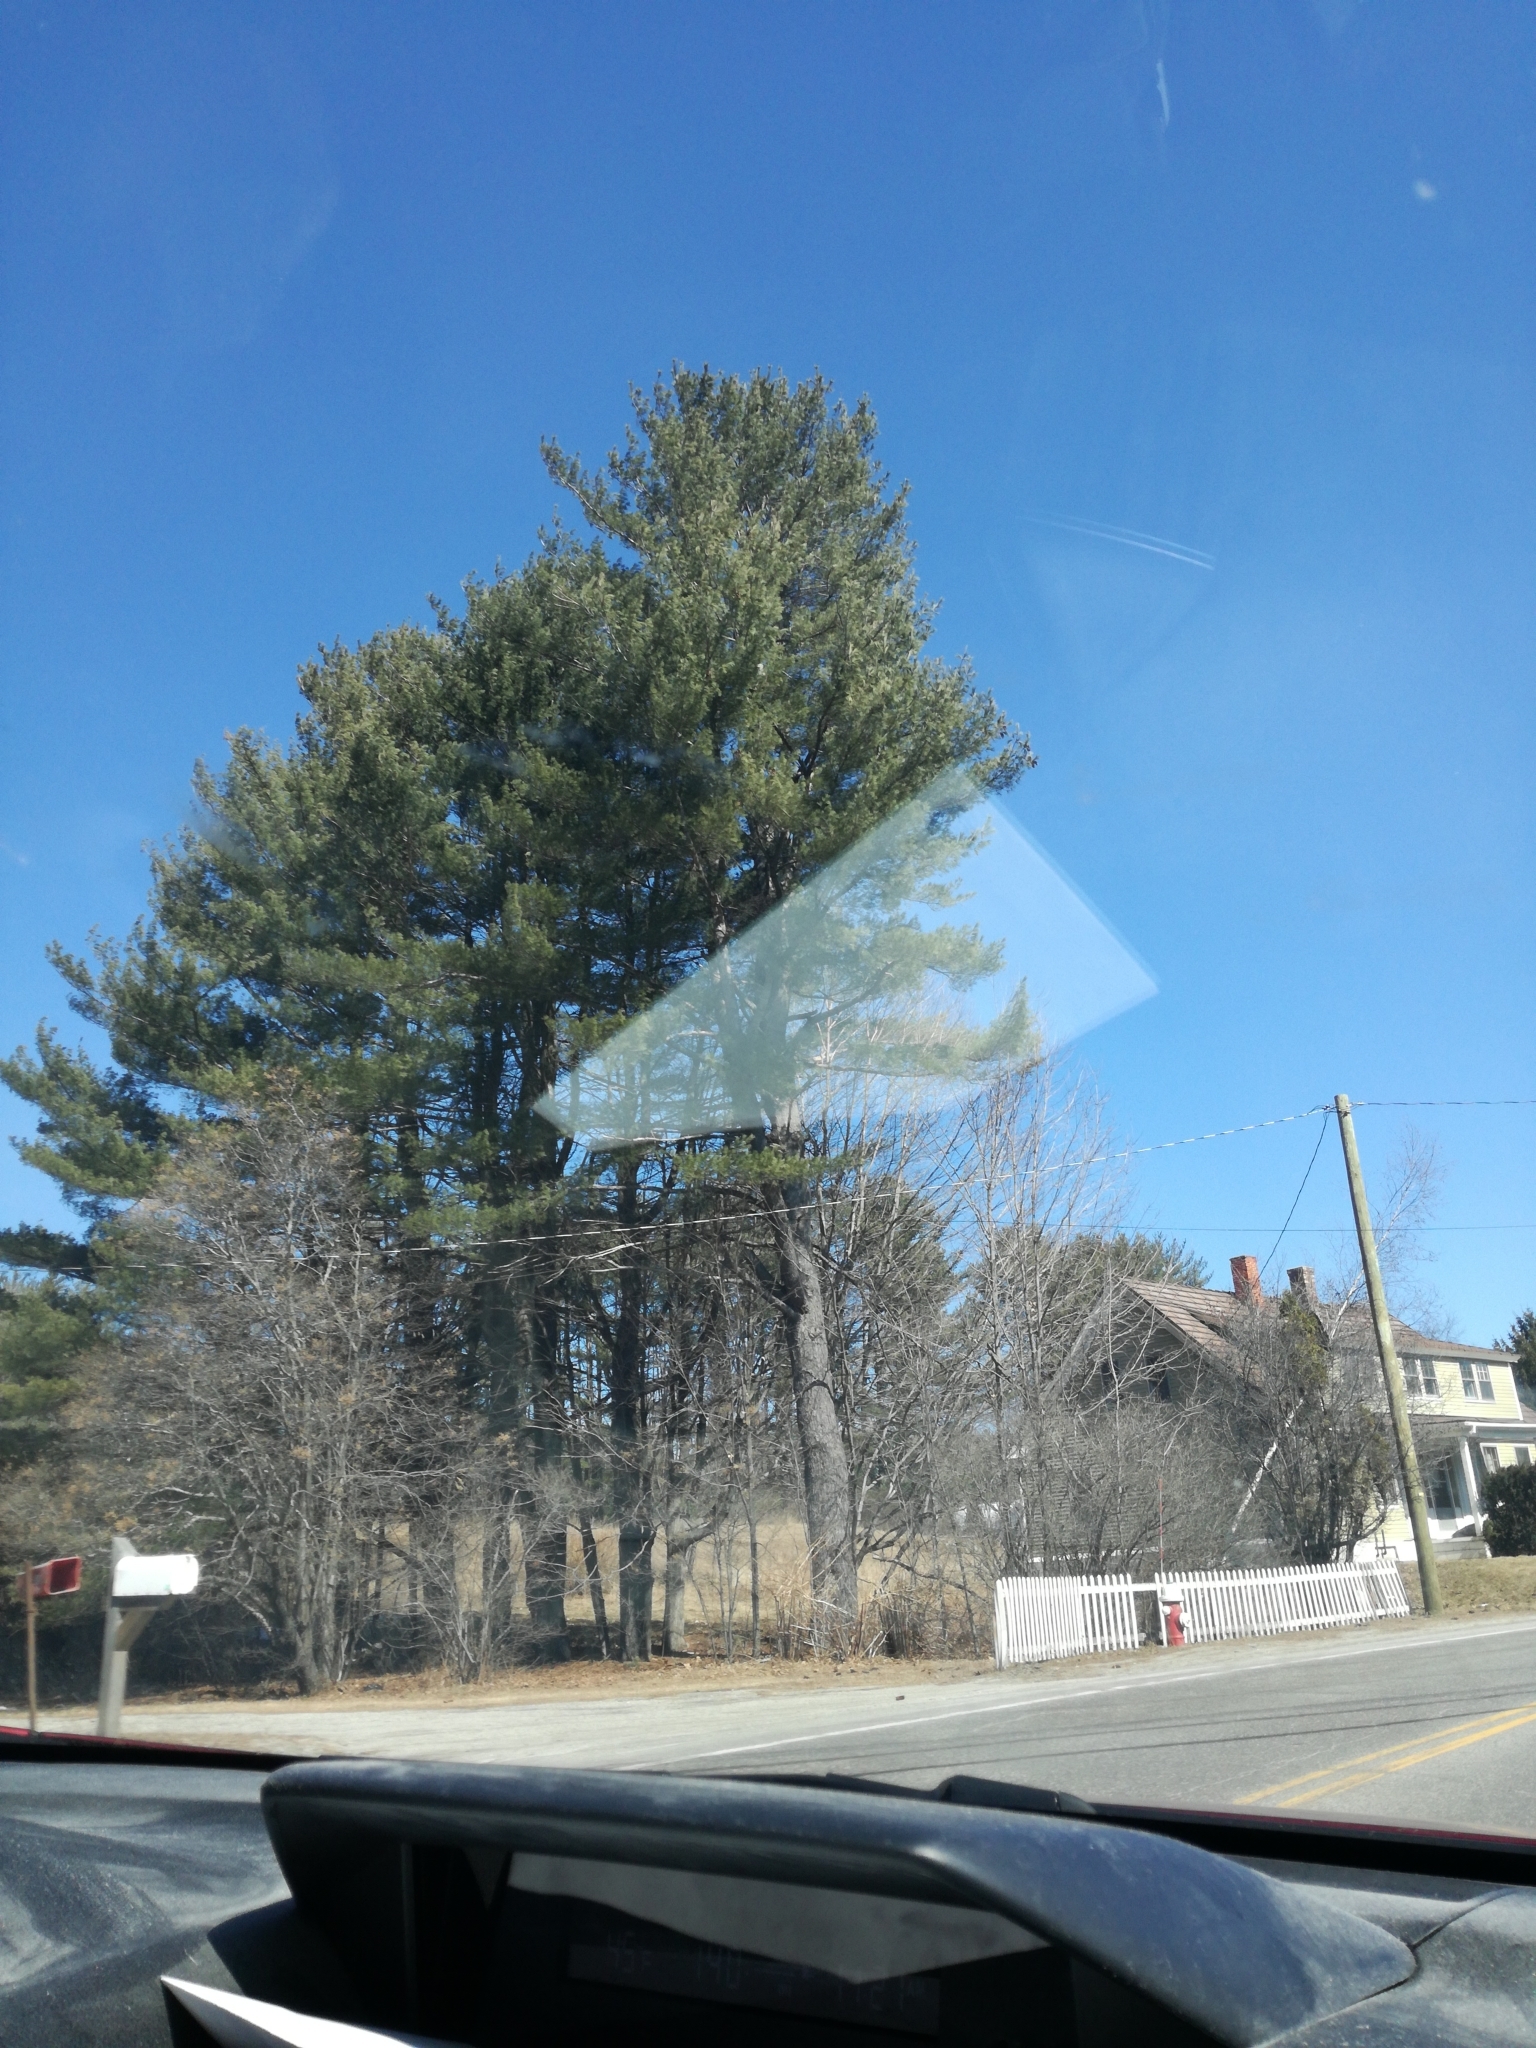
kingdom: Plantae
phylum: Tracheophyta
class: Pinopsida
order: Pinales
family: Pinaceae
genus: Pinus
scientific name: Pinus strobus
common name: Weymouth pine
